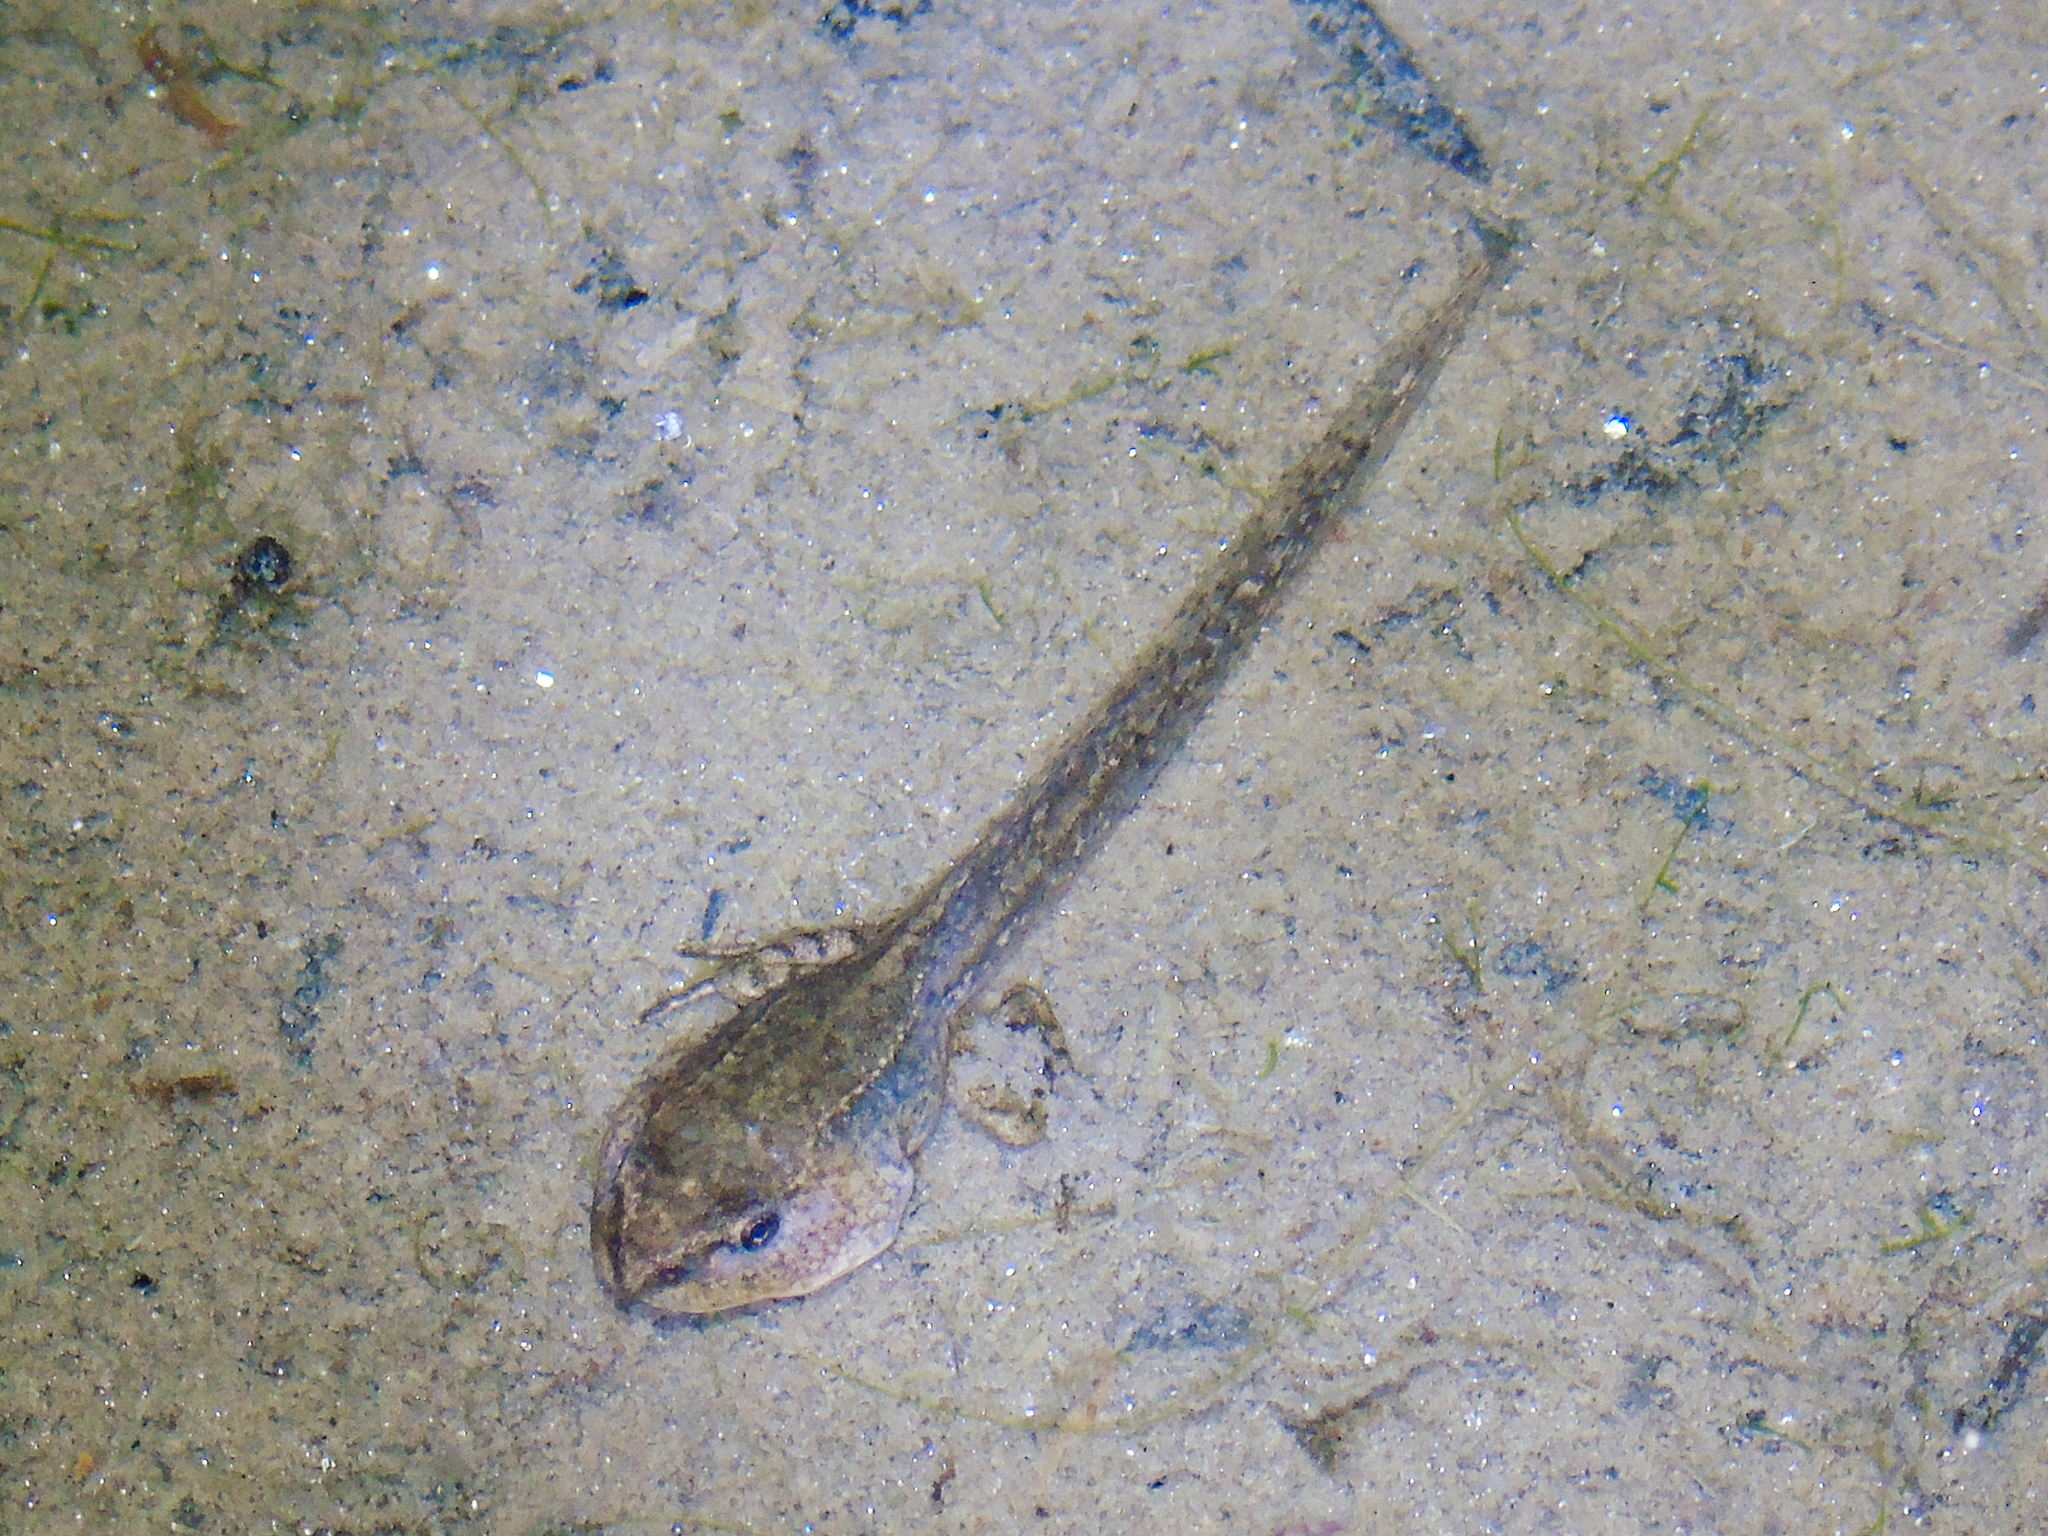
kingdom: Animalia
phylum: Chordata
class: Amphibia
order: Anura
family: Ranidae
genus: Rana
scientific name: Rana temporaria
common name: Common frog
